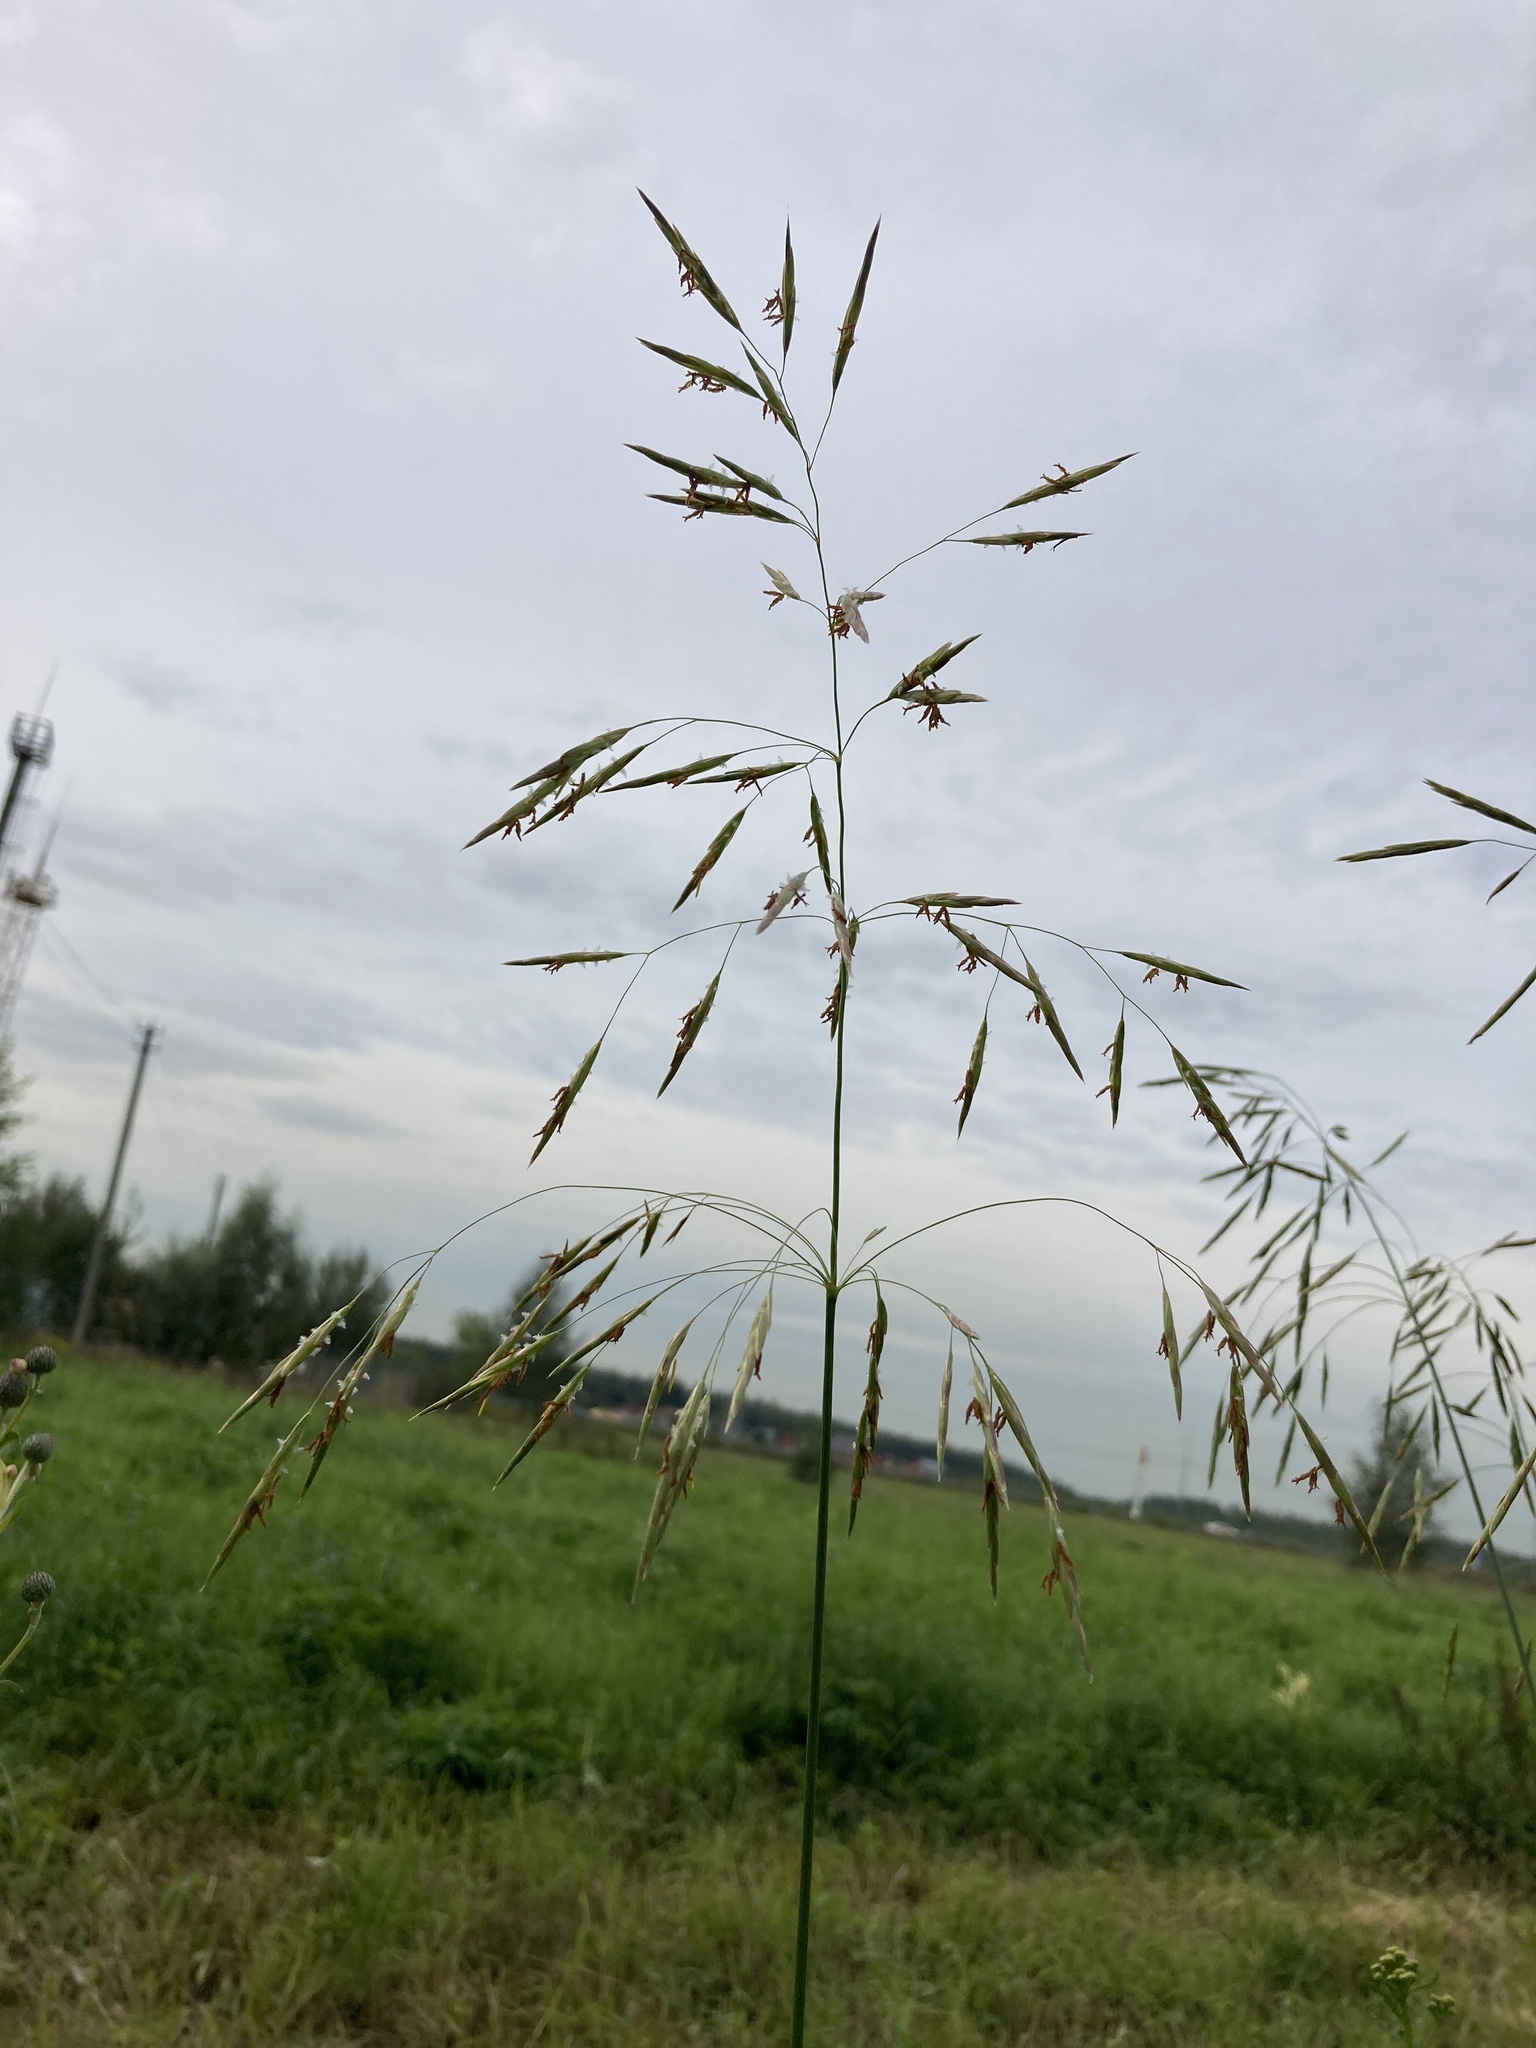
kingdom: Plantae
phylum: Tracheophyta
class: Liliopsida
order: Poales
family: Poaceae
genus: Bromus
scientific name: Bromus inermis
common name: Smooth brome
